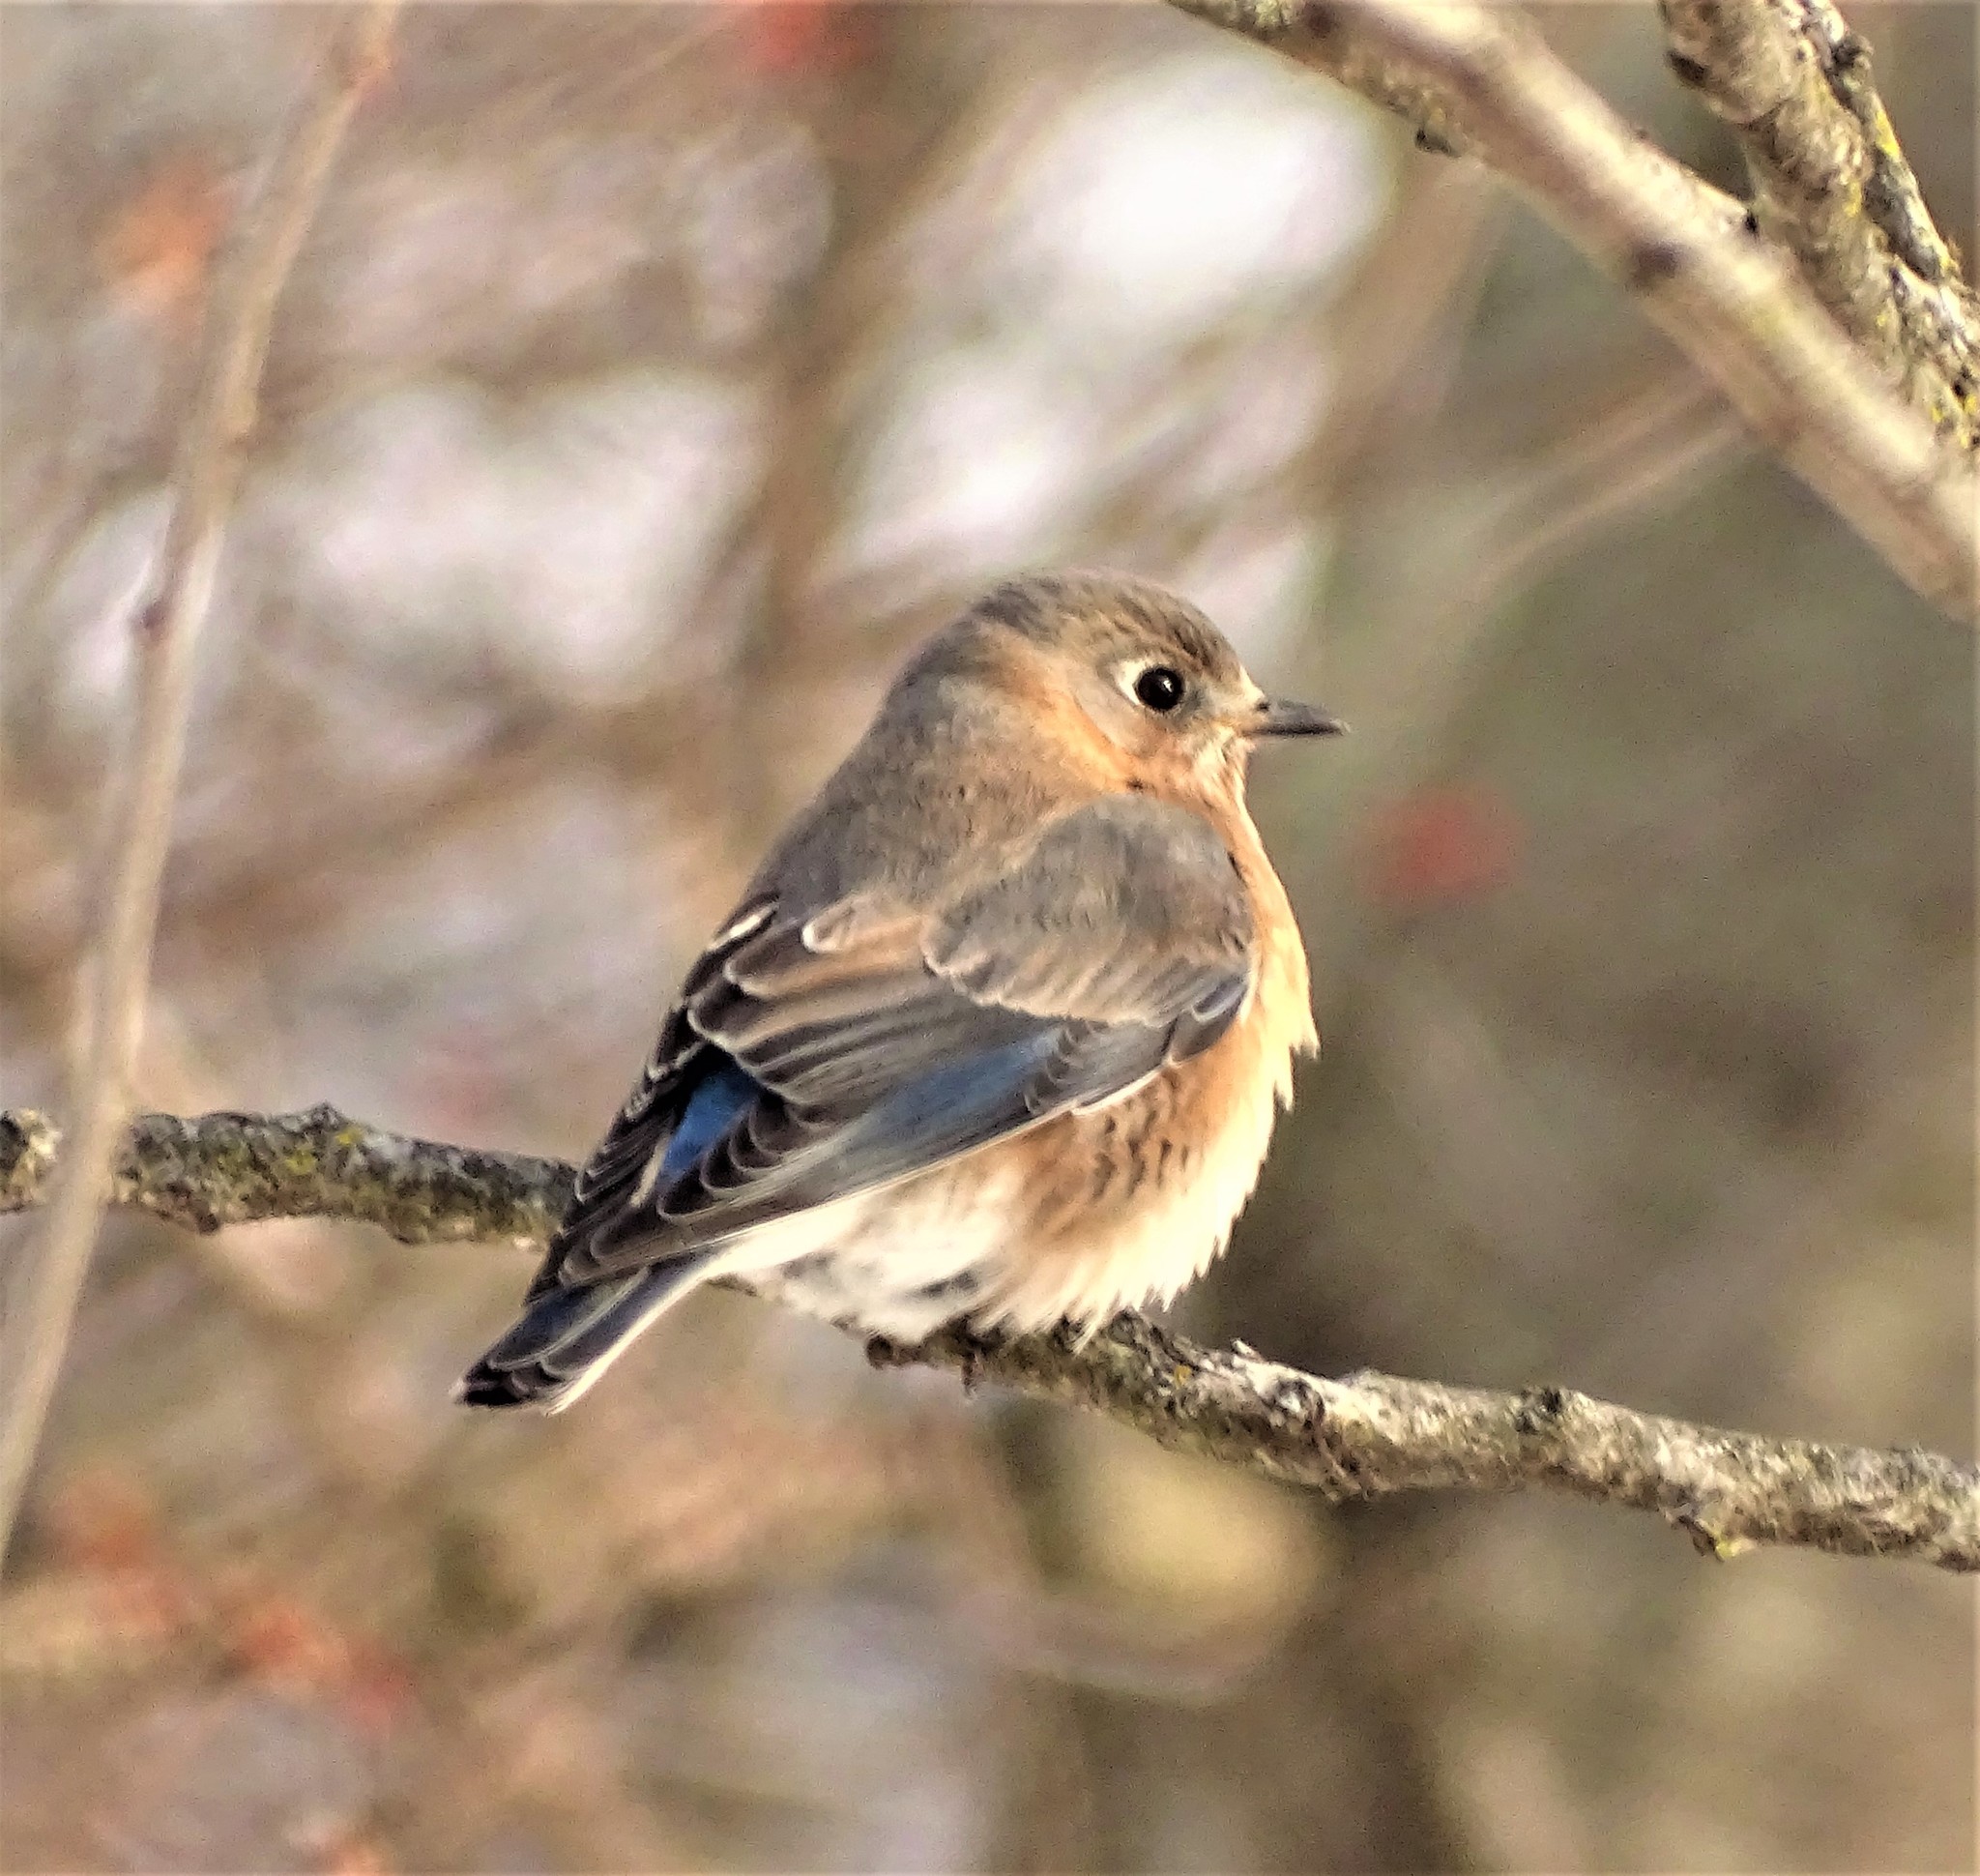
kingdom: Animalia
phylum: Chordata
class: Aves
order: Passeriformes
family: Turdidae
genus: Sialia
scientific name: Sialia sialis
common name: Eastern bluebird
